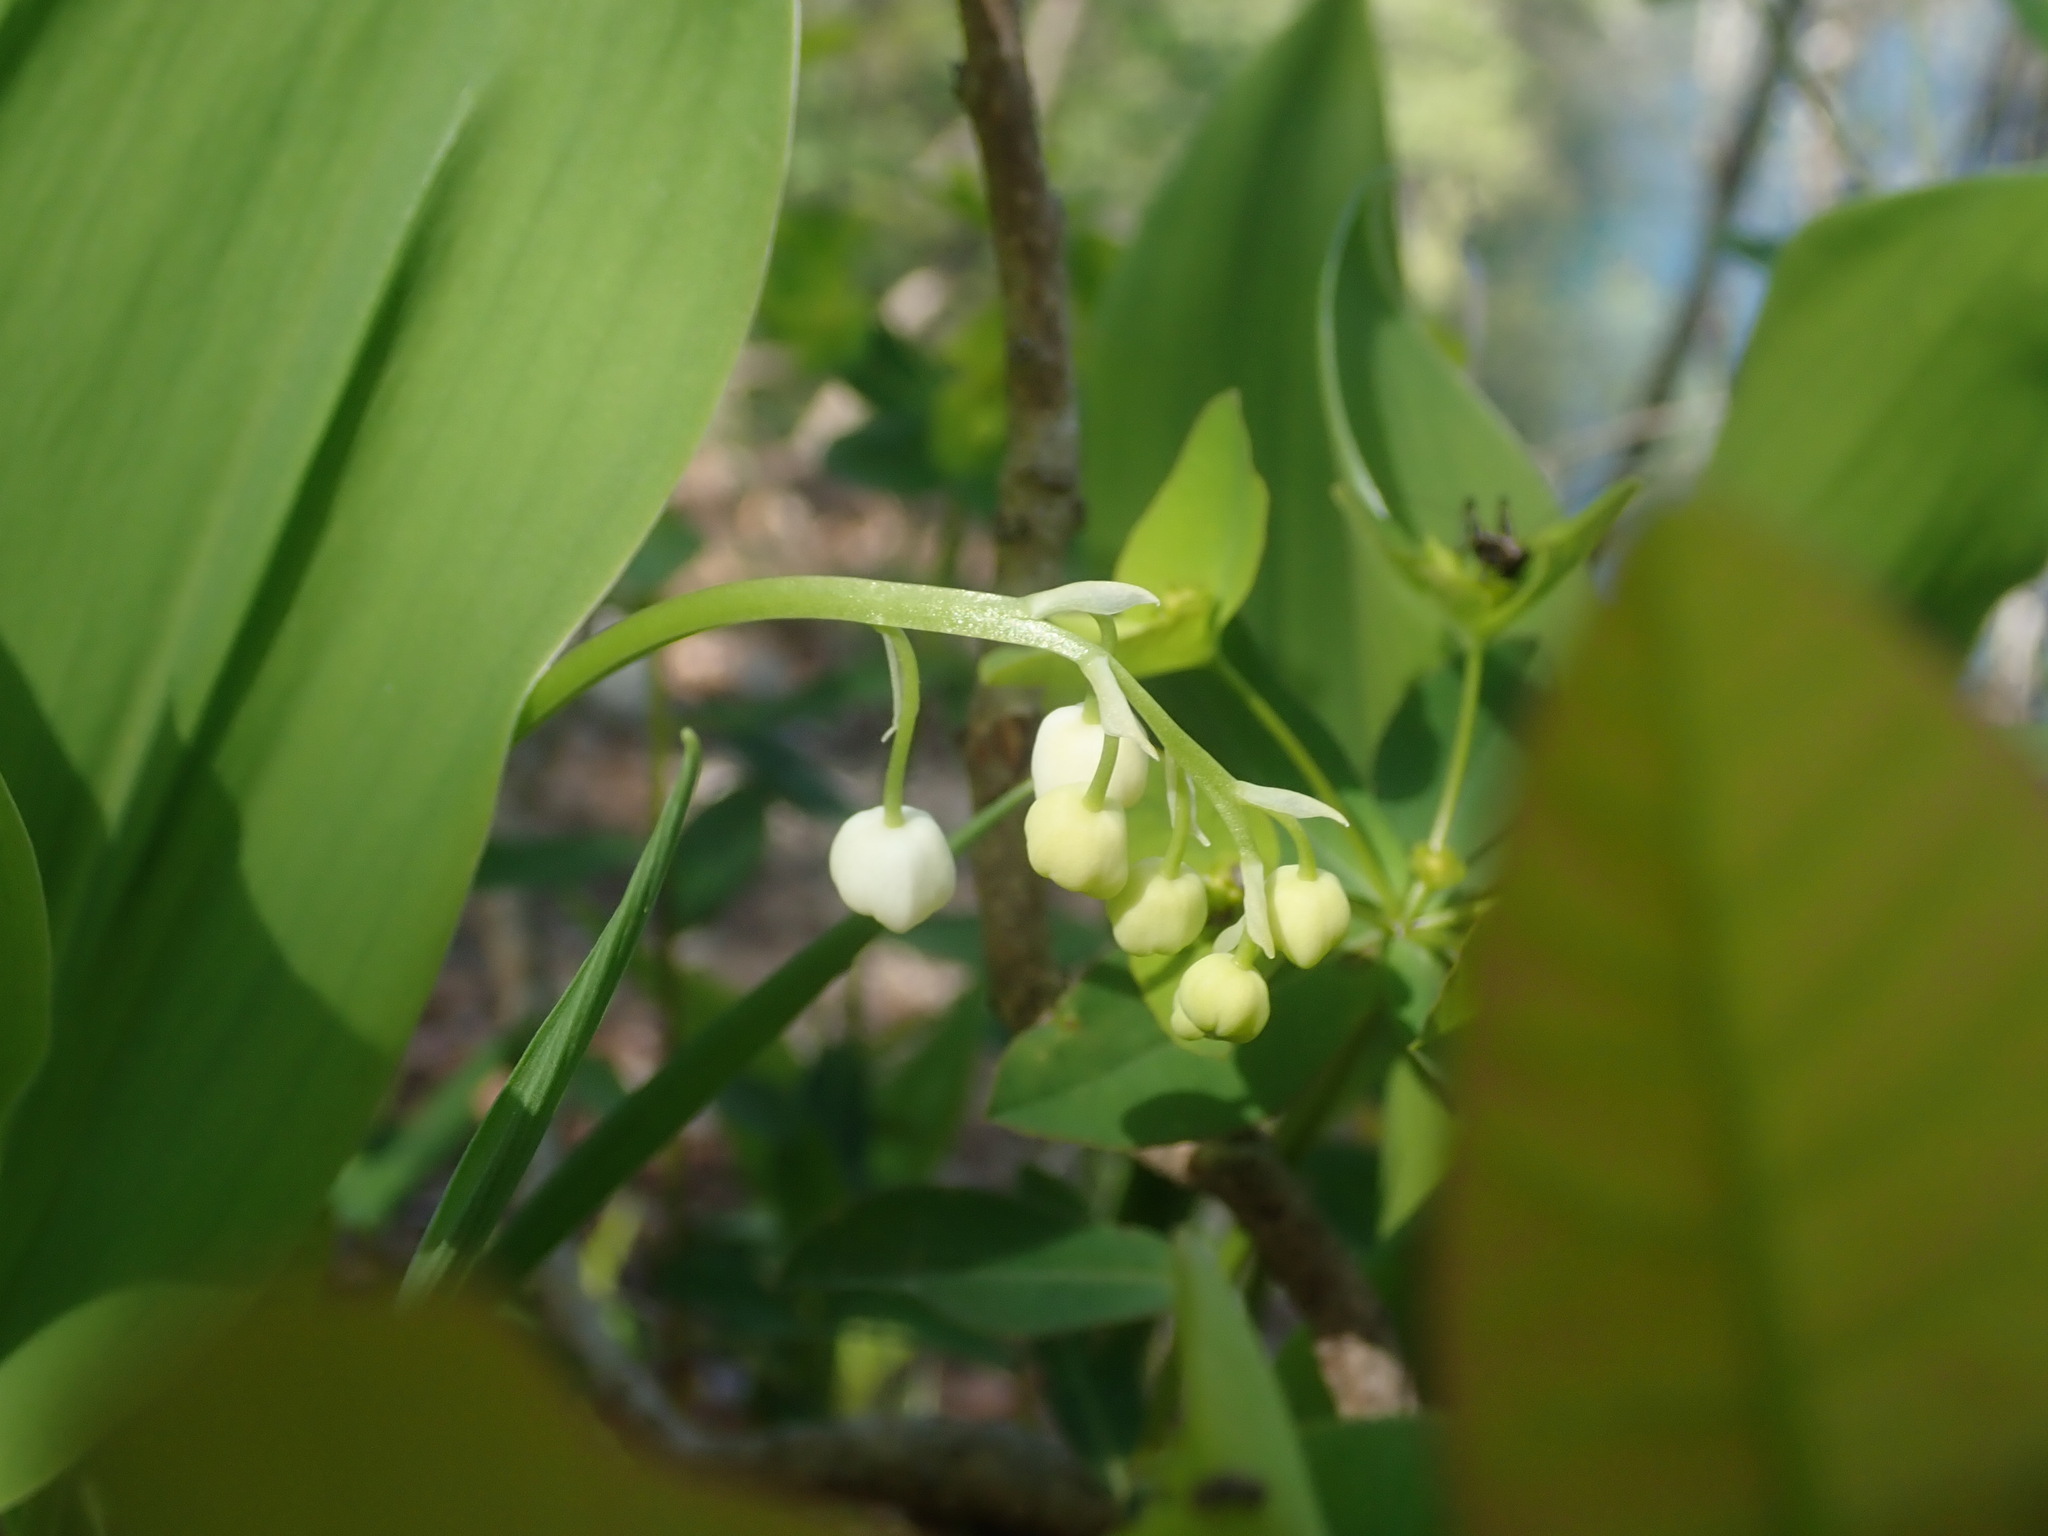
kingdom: Plantae
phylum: Tracheophyta
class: Liliopsida
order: Asparagales
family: Asparagaceae
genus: Convallaria
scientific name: Convallaria majalis
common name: Lily-of-the-valley
